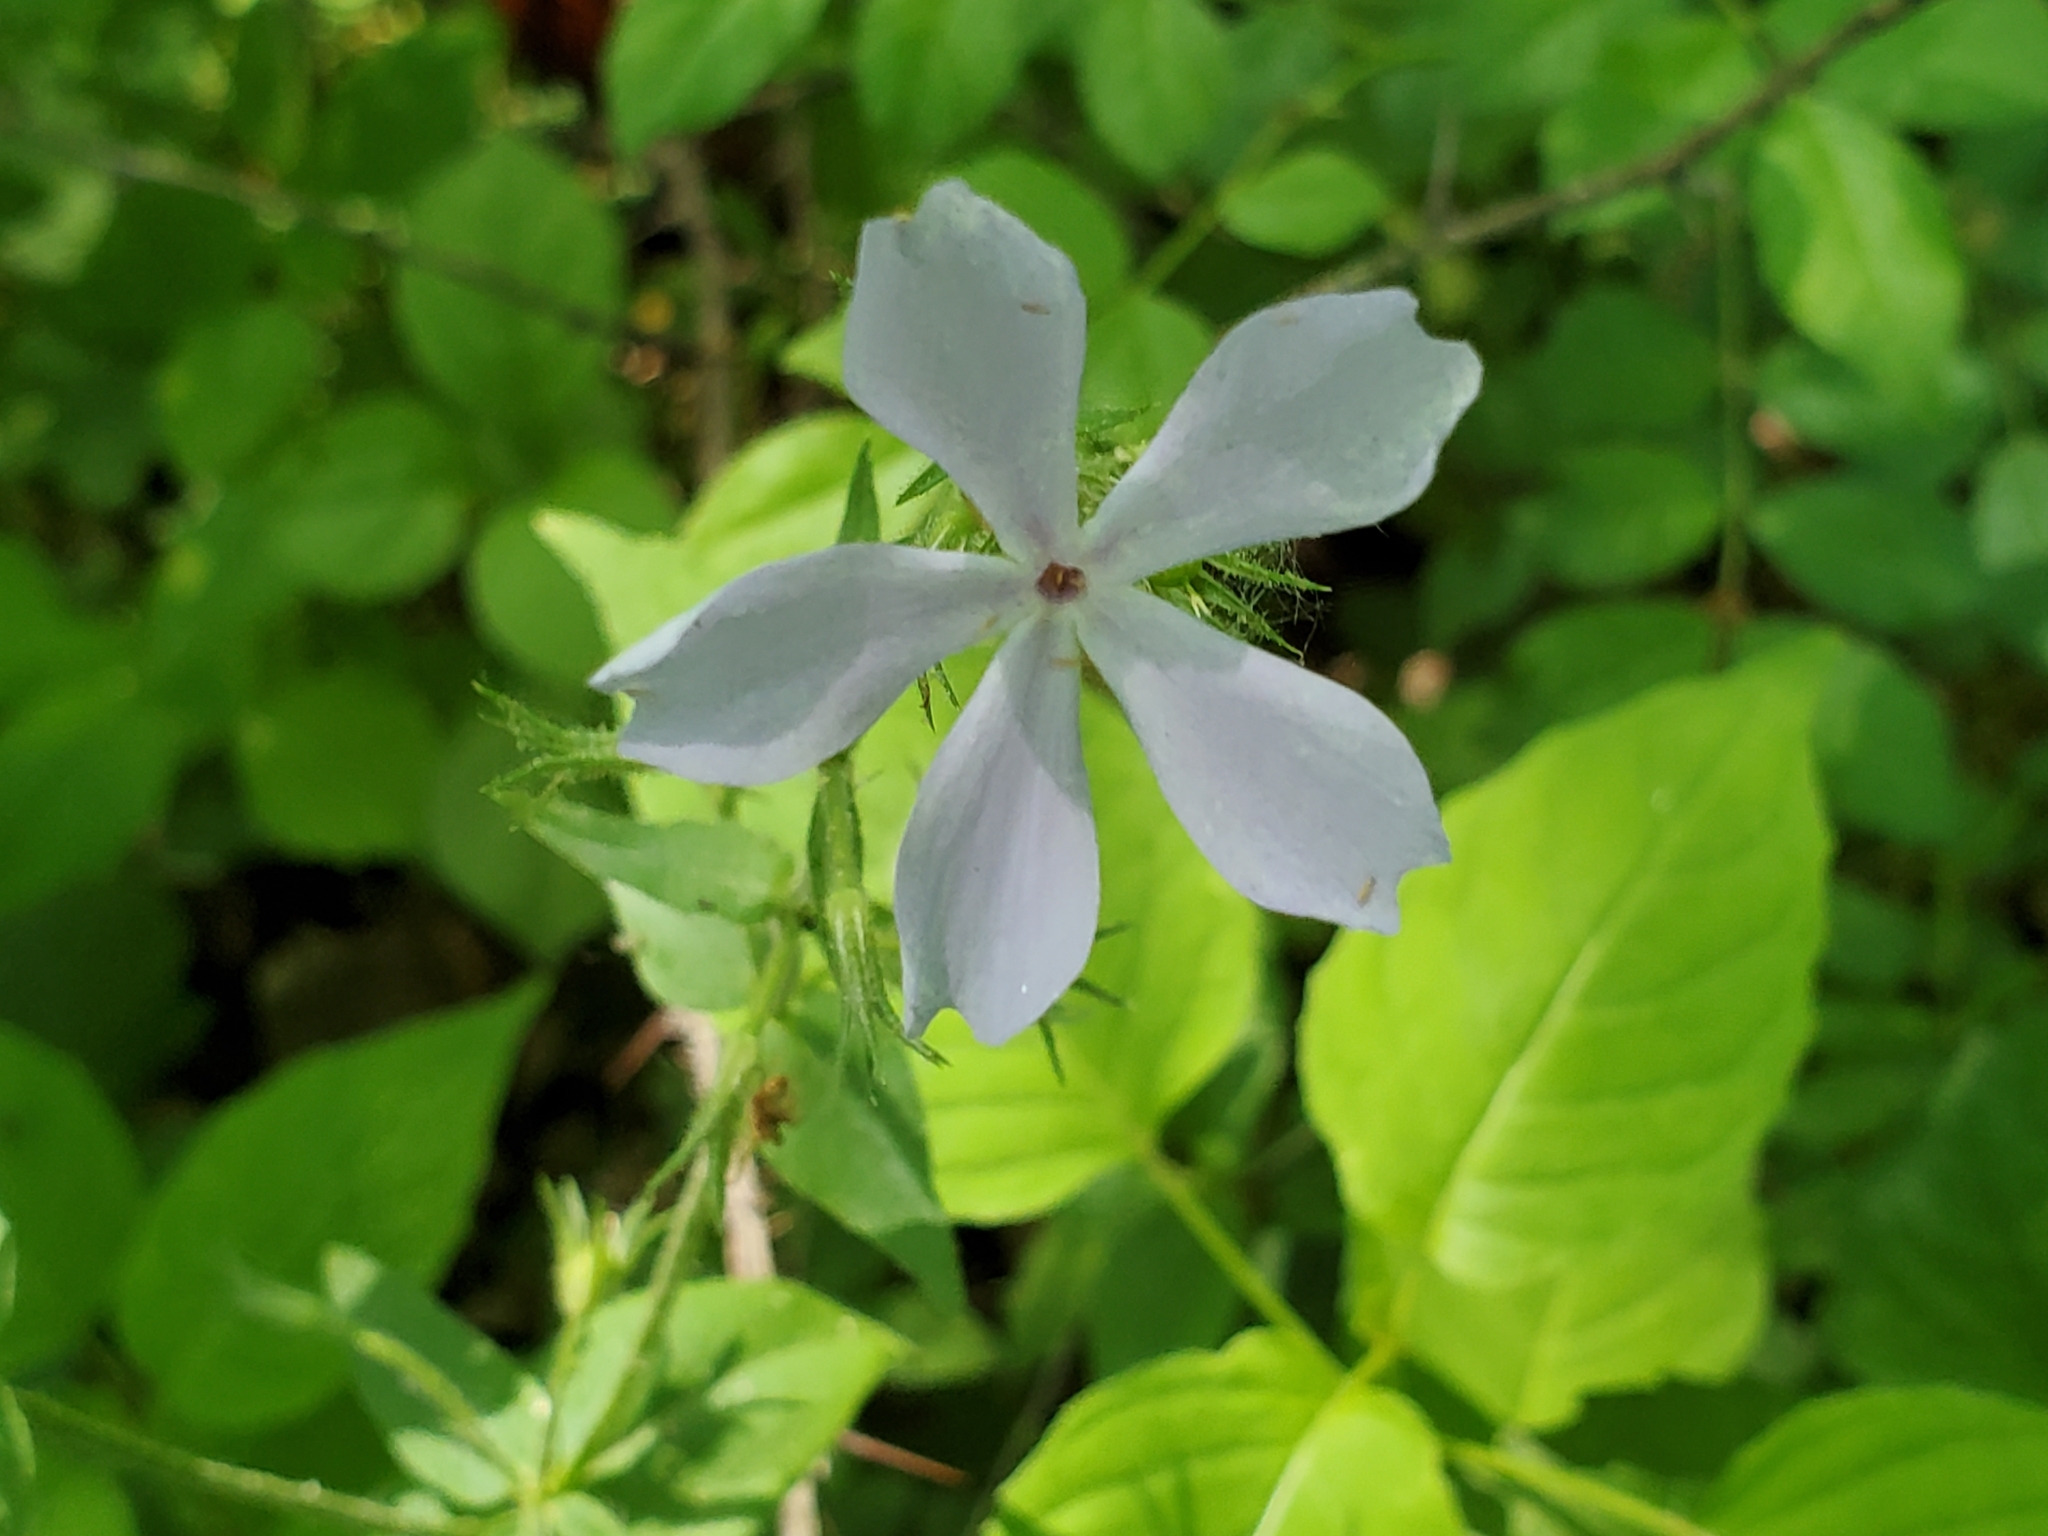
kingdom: Plantae
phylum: Tracheophyta
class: Magnoliopsida
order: Ericales
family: Polemoniaceae
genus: Phlox
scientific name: Phlox divaricata
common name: Blue phlox
